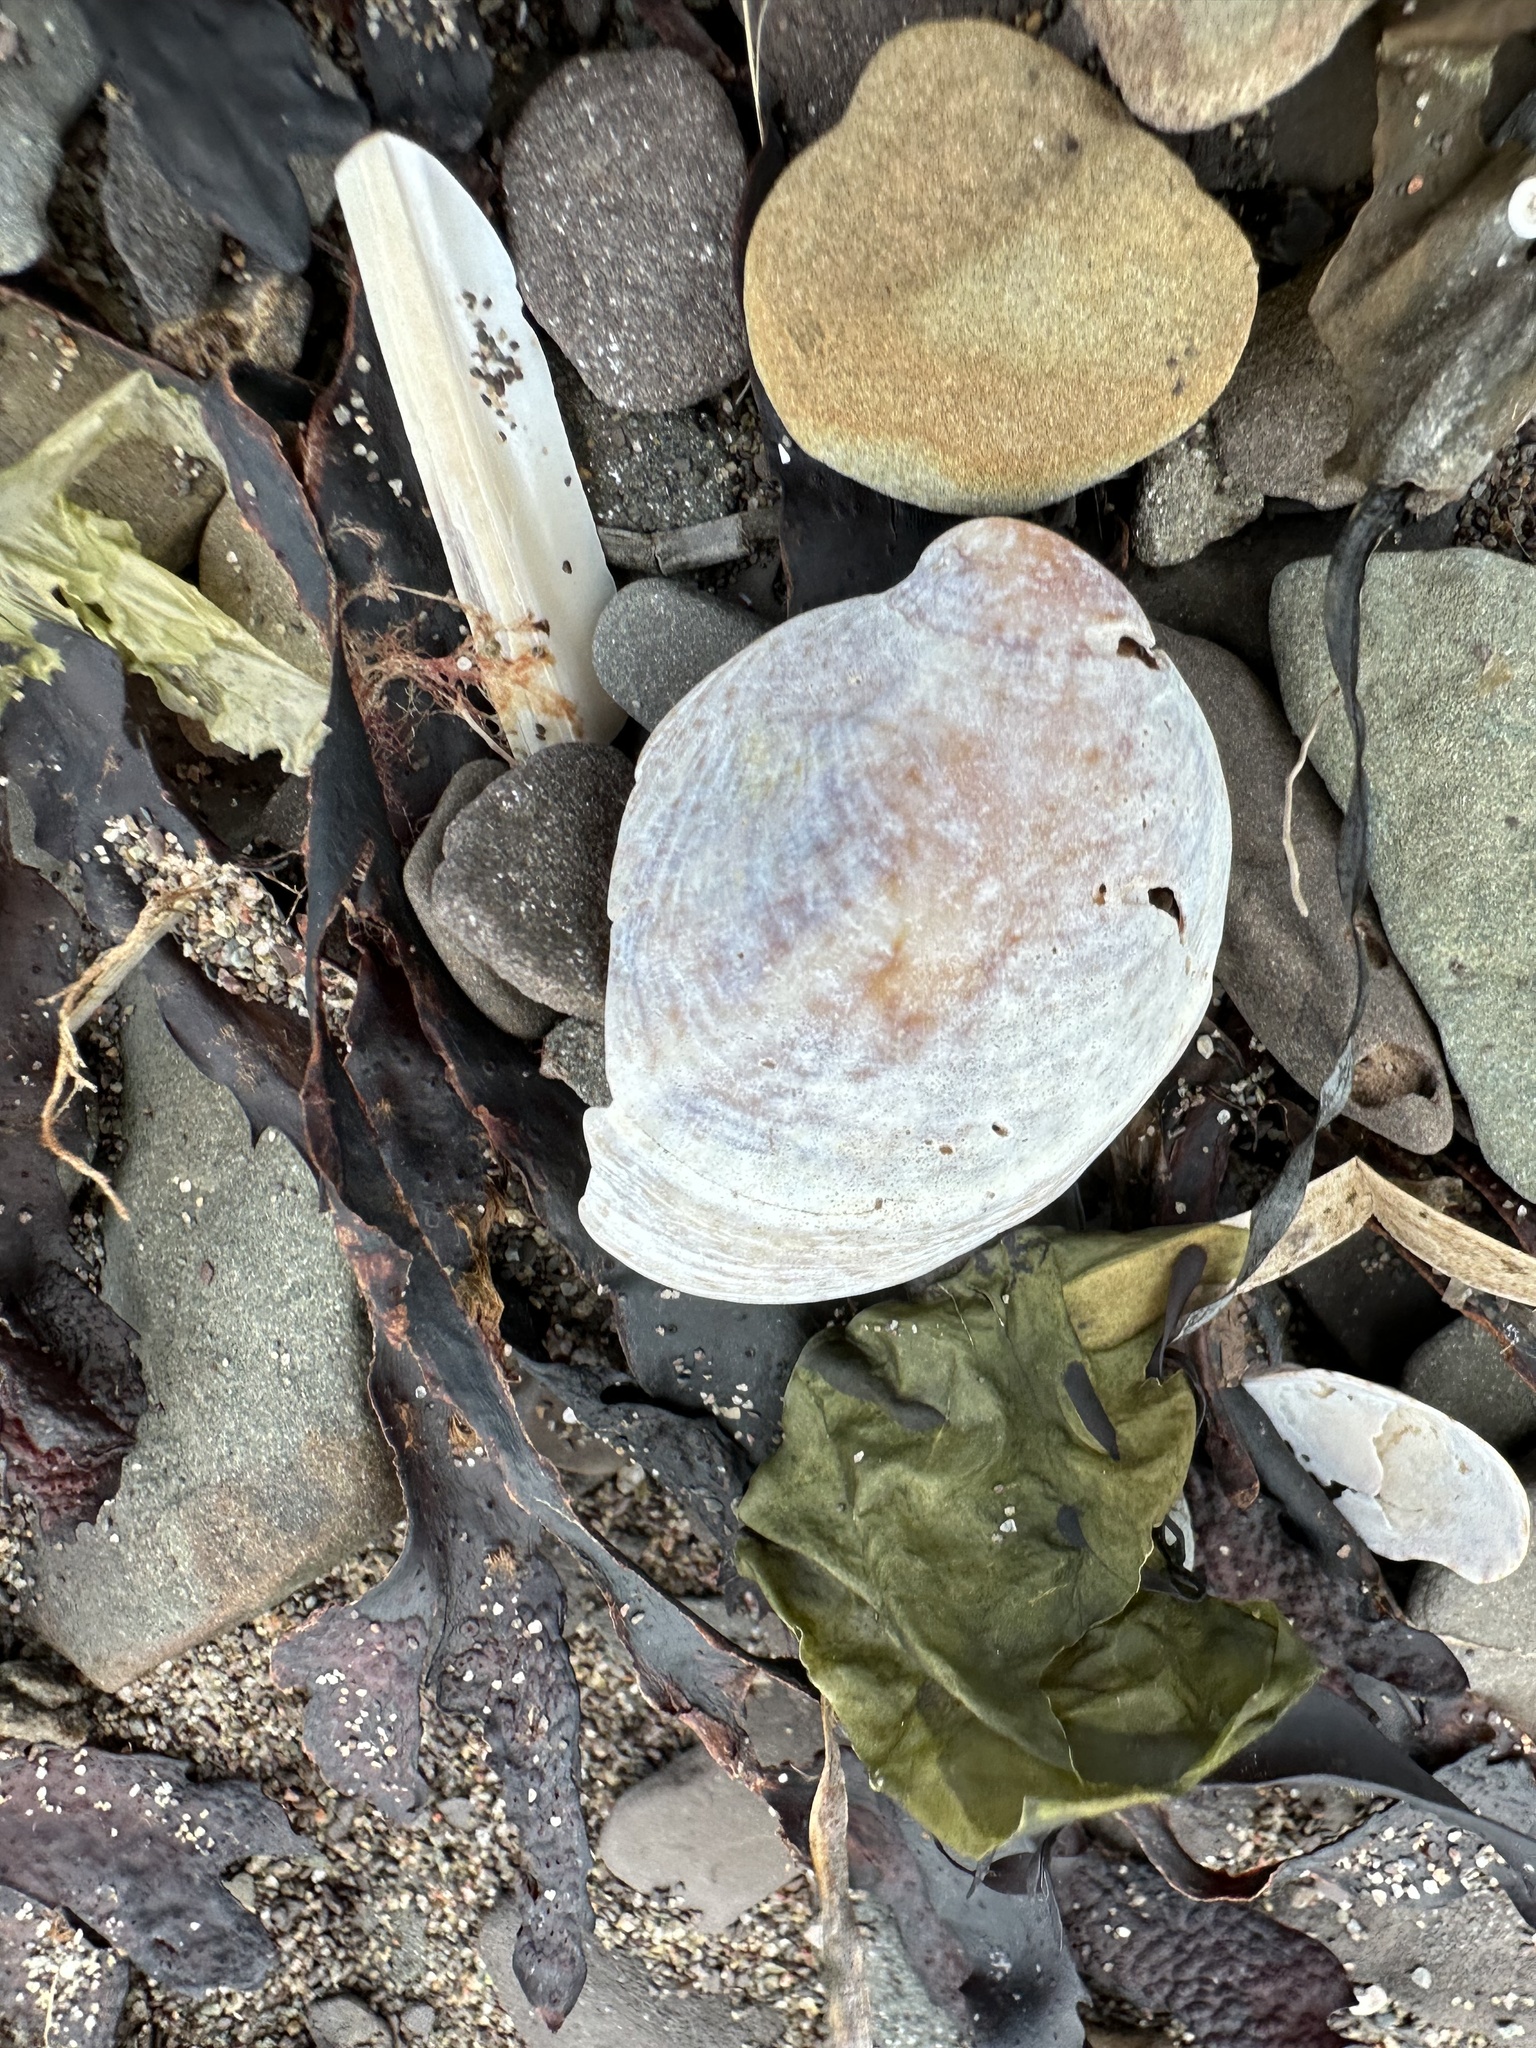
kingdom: Animalia
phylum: Mollusca
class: Gastropoda
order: Littorinimorpha
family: Calyptraeidae
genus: Crepidula
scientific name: Crepidula fornicata
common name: Slipper limpet
